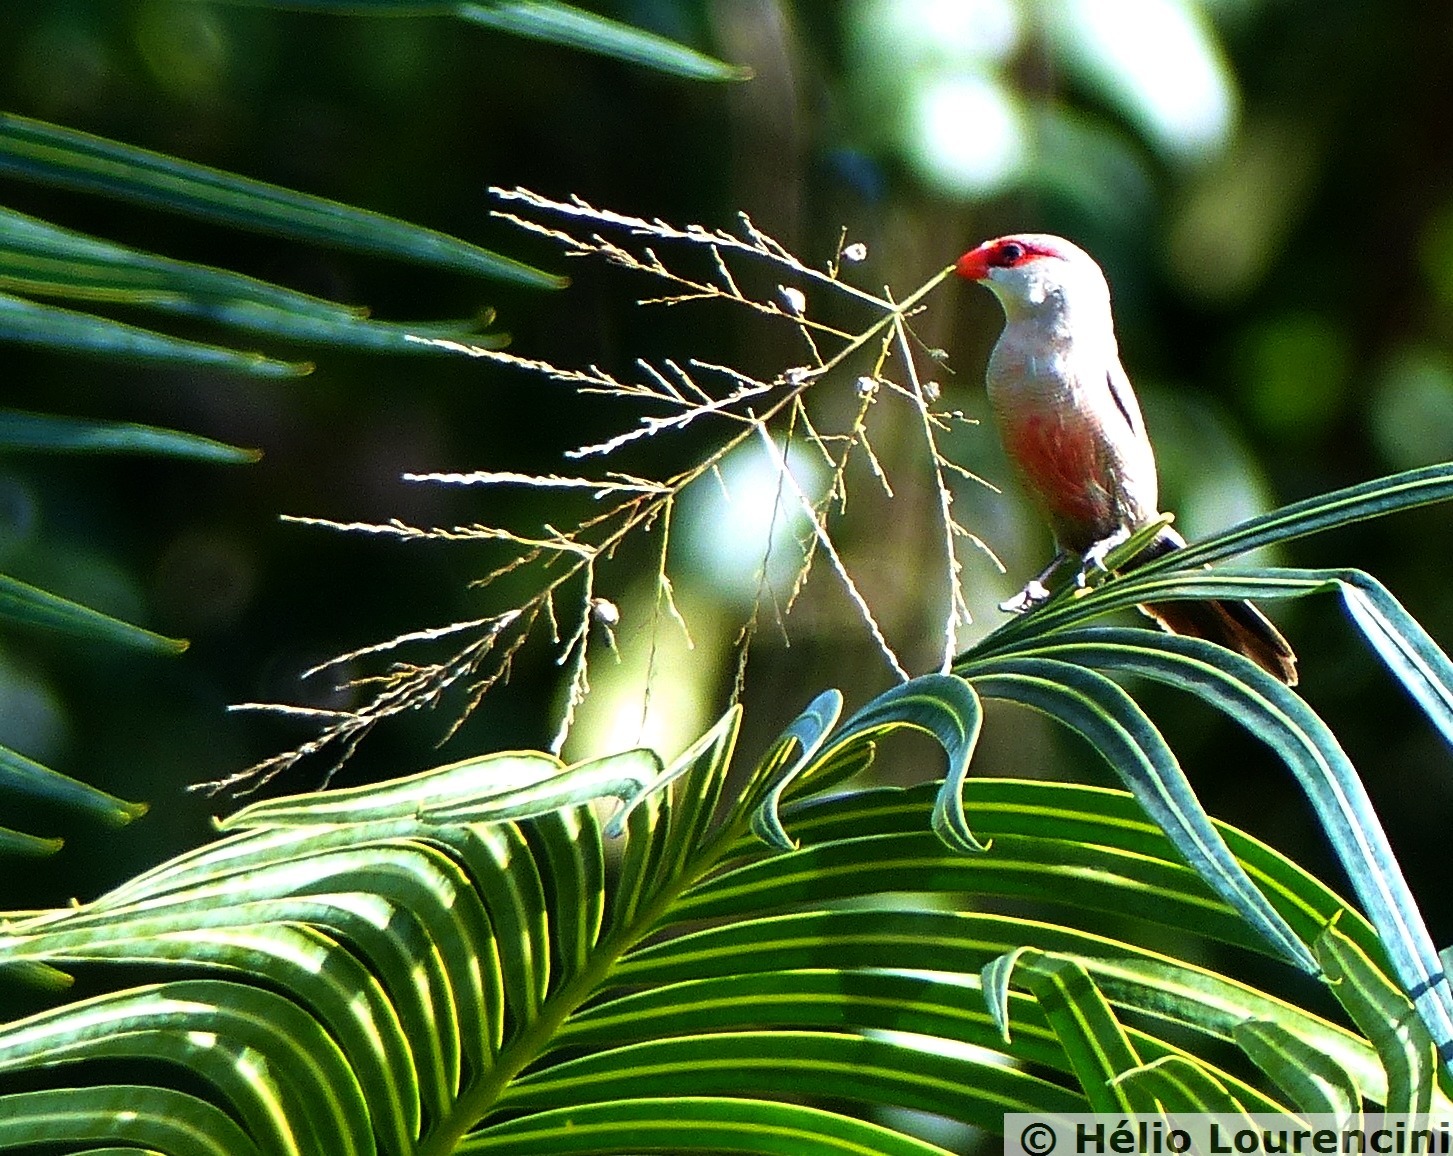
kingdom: Animalia
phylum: Chordata
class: Aves
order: Passeriformes
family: Estrildidae
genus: Estrilda
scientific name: Estrilda astrild
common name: Common waxbill
